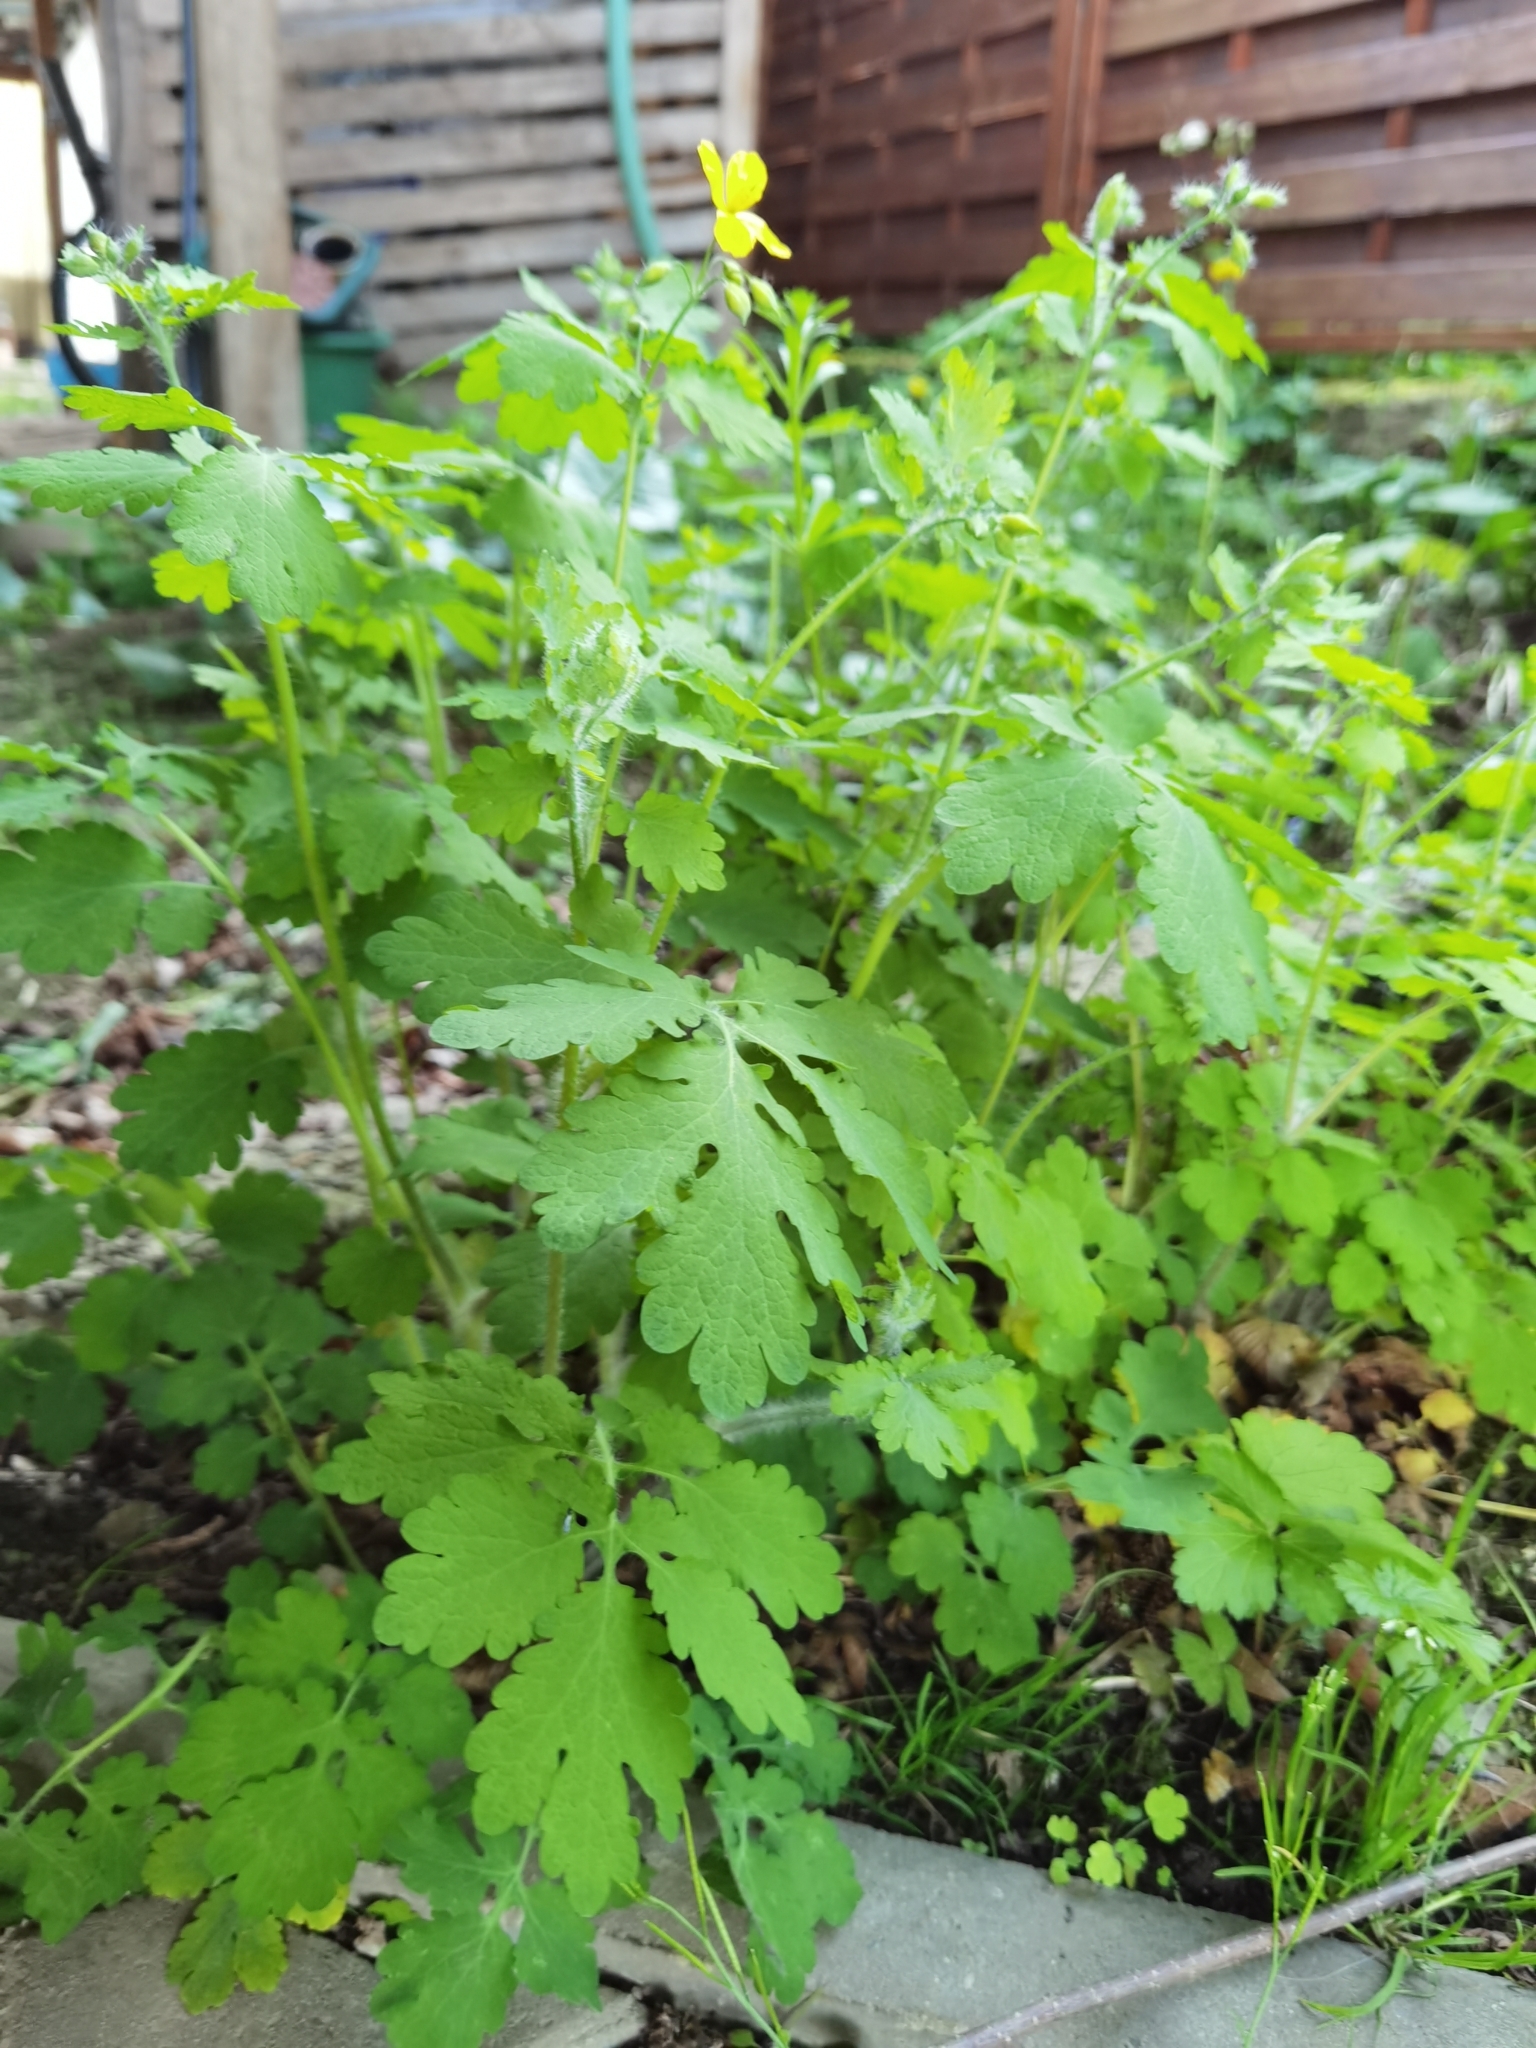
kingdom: Plantae
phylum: Tracheophyta
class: Magnoliopsida
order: Ranunculales
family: Papaveraceae
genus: Chelidonium
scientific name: Chelidonium majus
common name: Greater celandine
